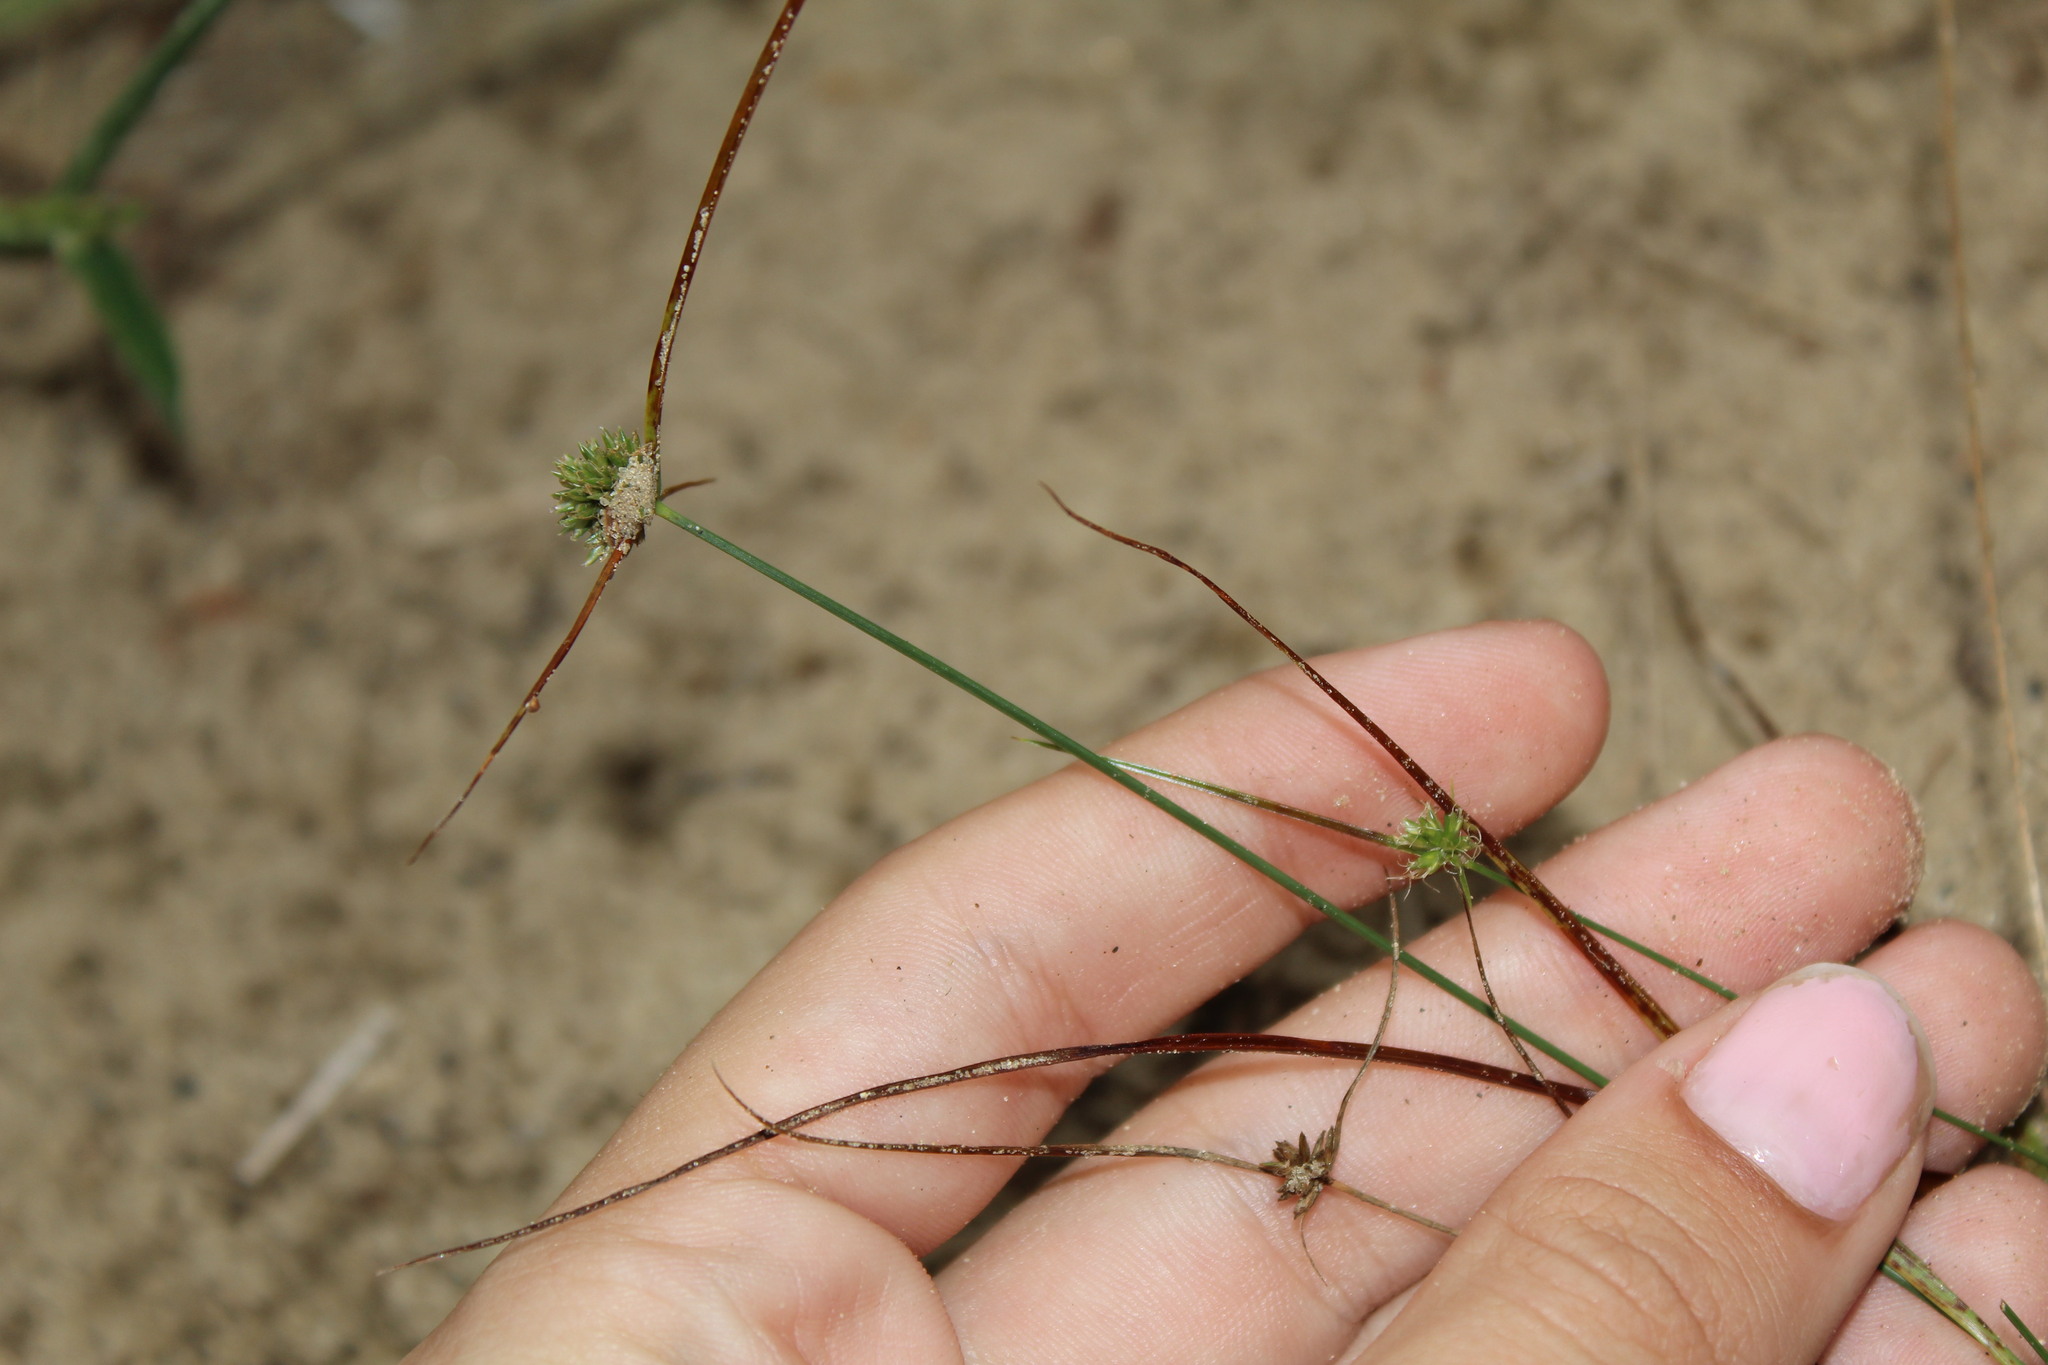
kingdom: Plantae
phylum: Tracheophyta
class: Liliopsida
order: Poales
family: Cyperaceae
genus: Cyperus
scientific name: Cyperus lupulinus
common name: Great plains flatsedge
